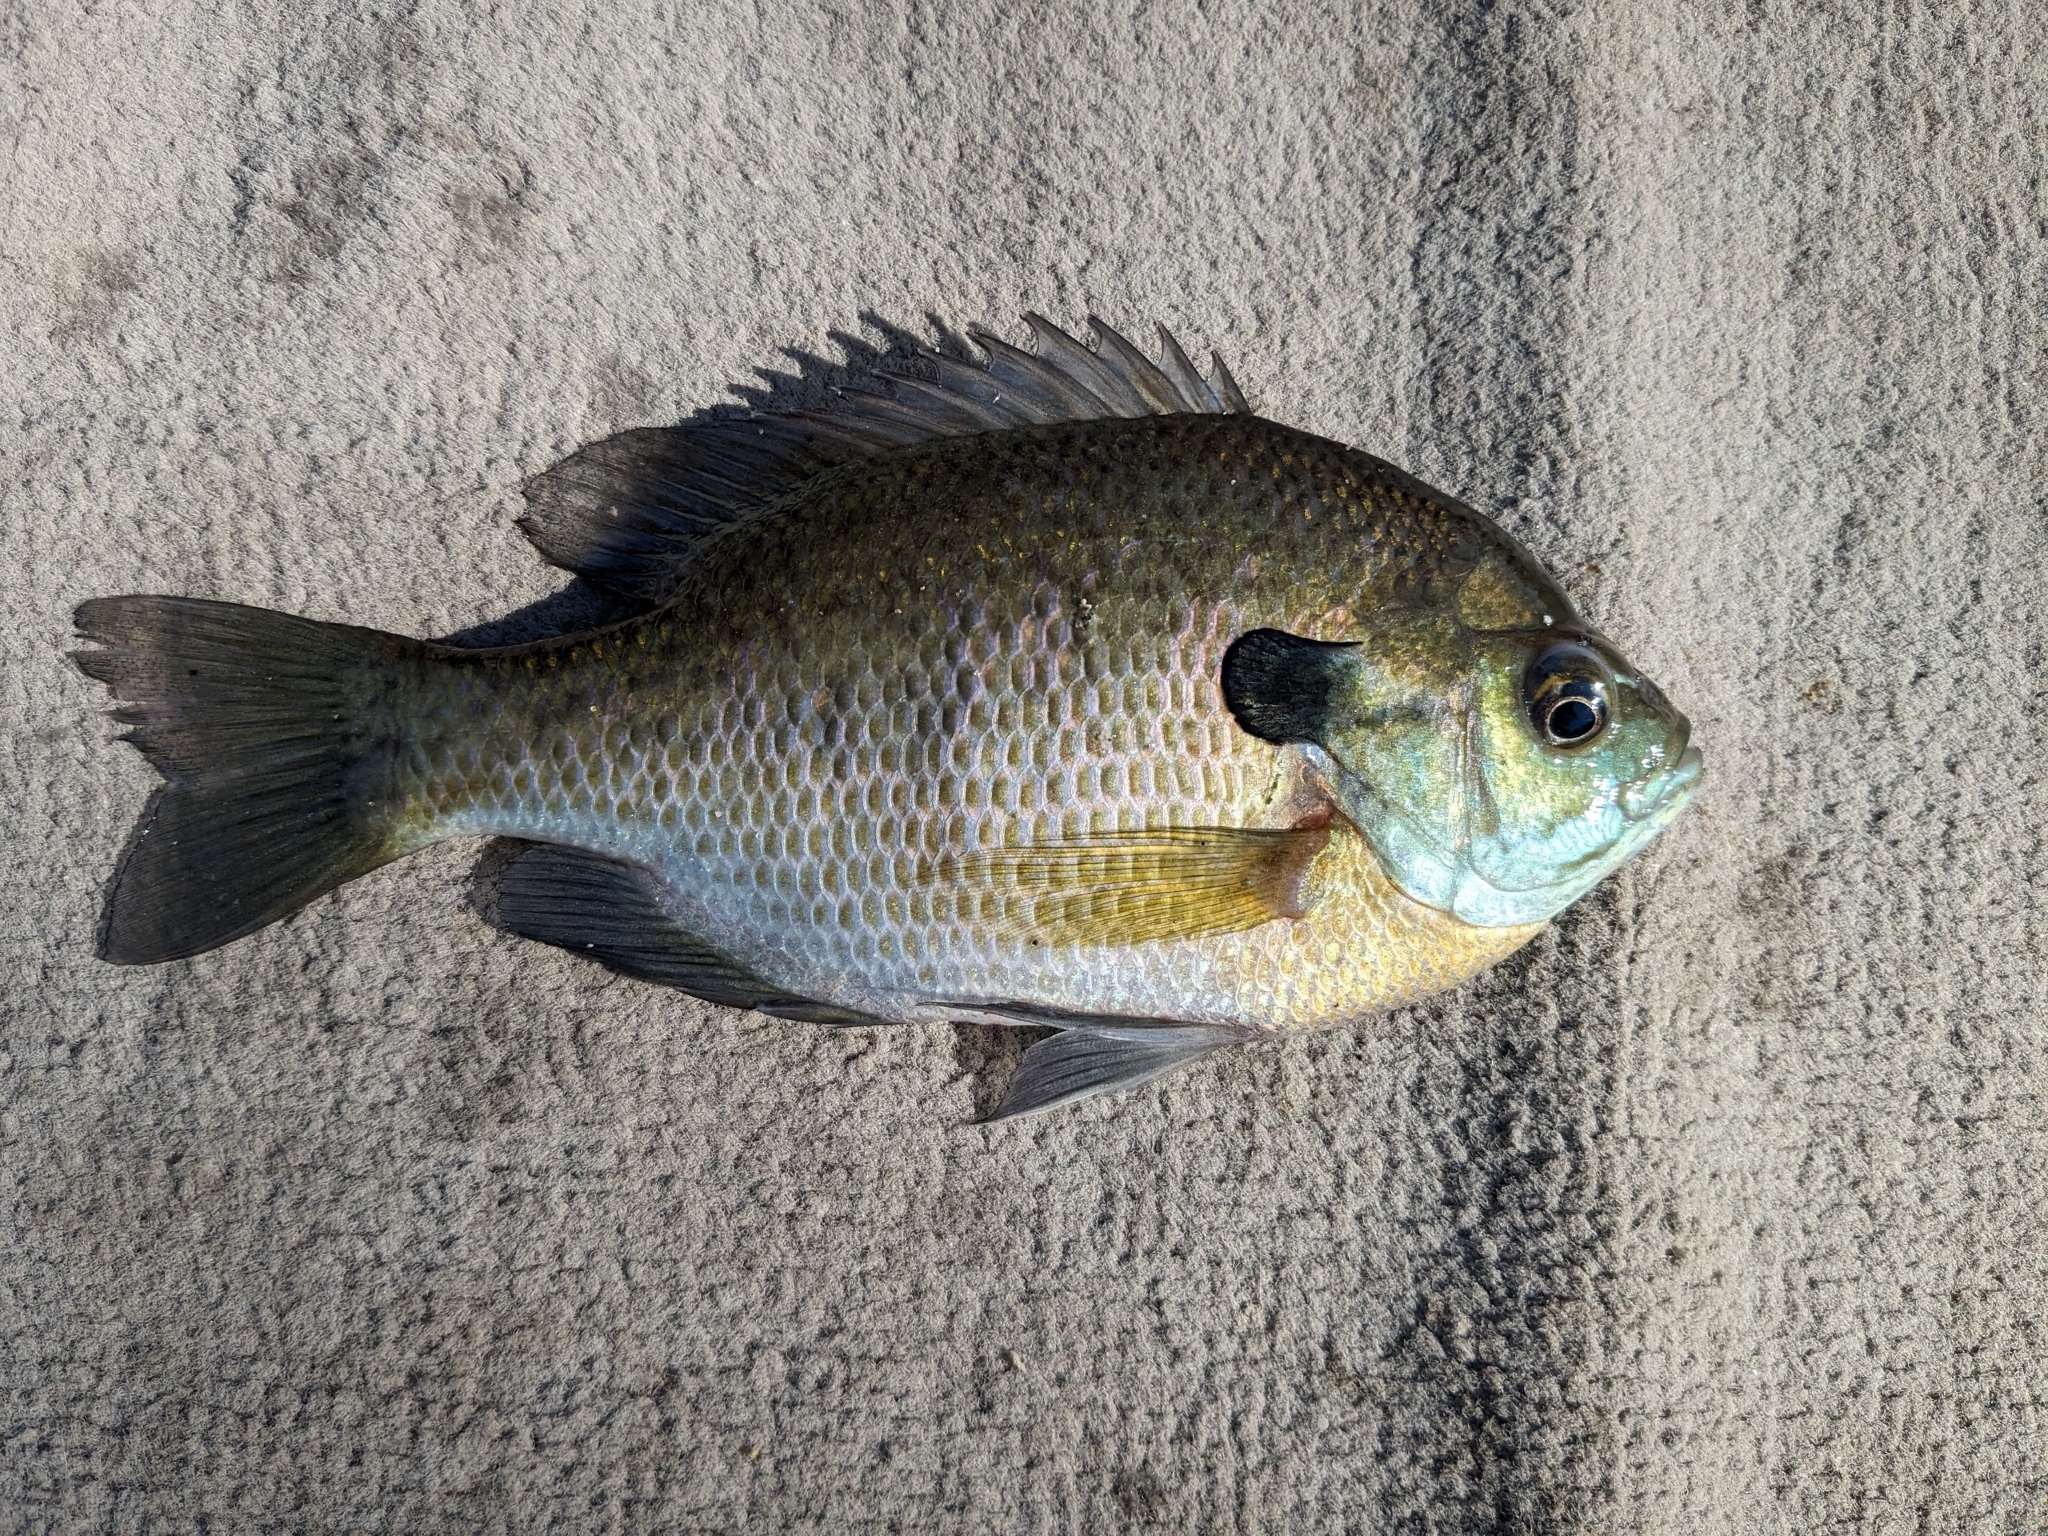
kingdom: Animalia
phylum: Chordata
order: Perciformes
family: Centrarchidae
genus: Lepomis
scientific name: Lepomis macrochirus
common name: Bluegill
